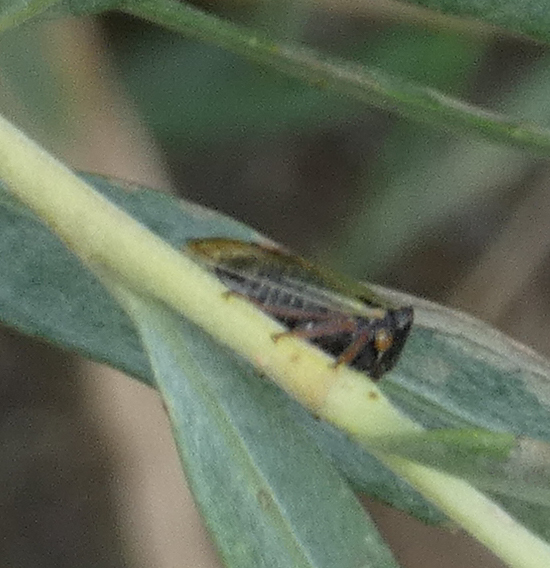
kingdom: Animalia
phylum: Arthropoda
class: Insecta
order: Hemiptera
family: Membracidae
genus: Stictocephala
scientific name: Stictocephala basalis
